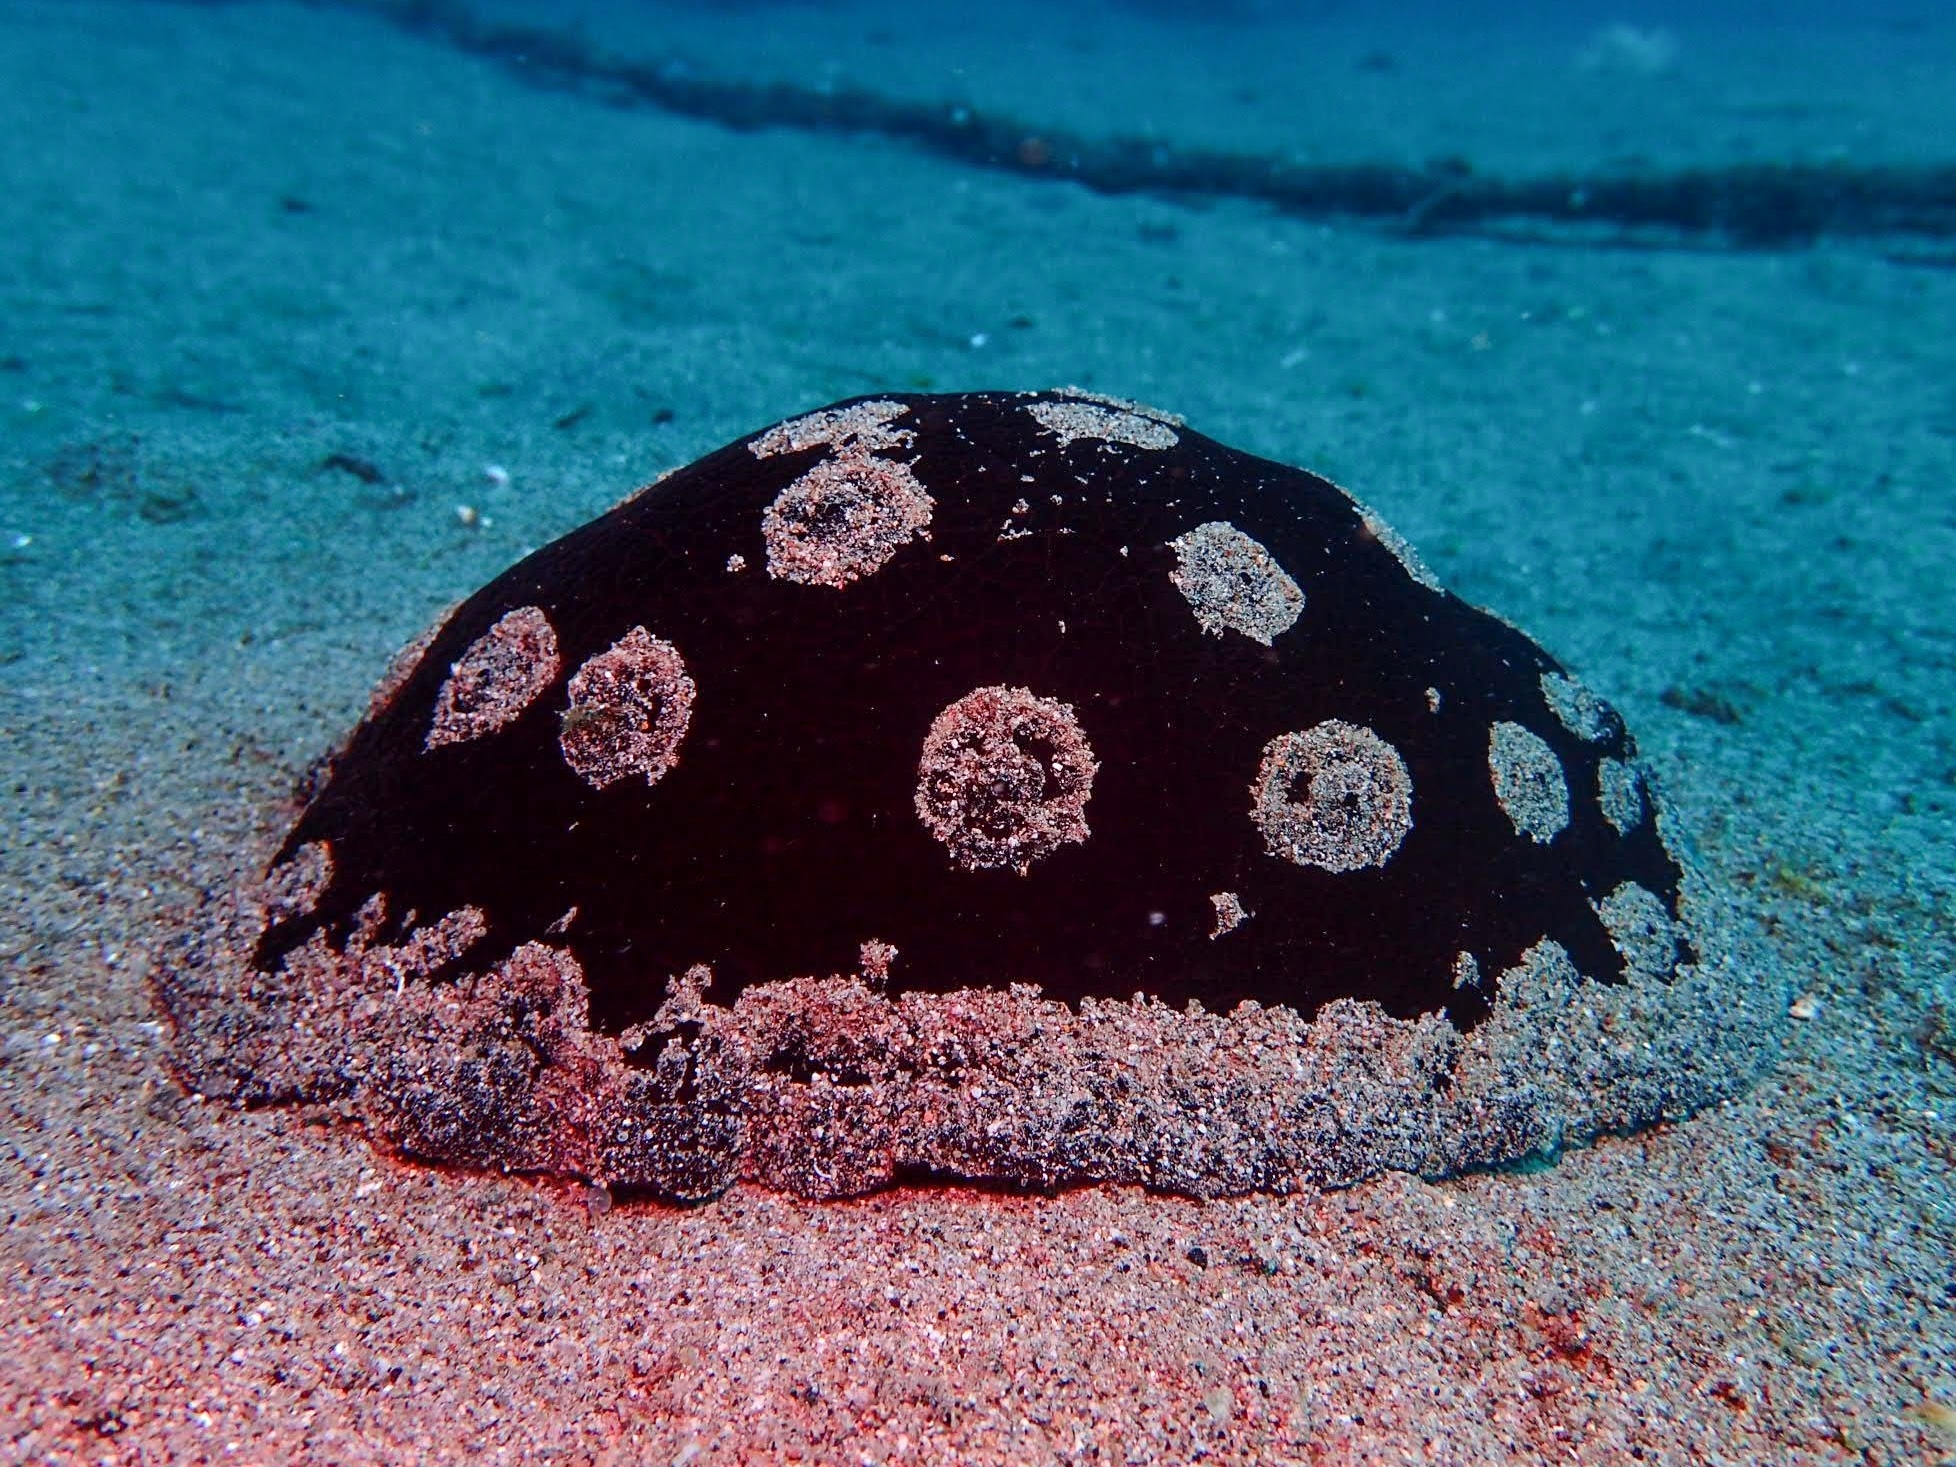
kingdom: Animalia
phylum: Mollusca
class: Gastropoda
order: Pleurobranchida
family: Pleurobranchidae
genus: Pleurobranchus
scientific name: Pleurobranchus weberi
